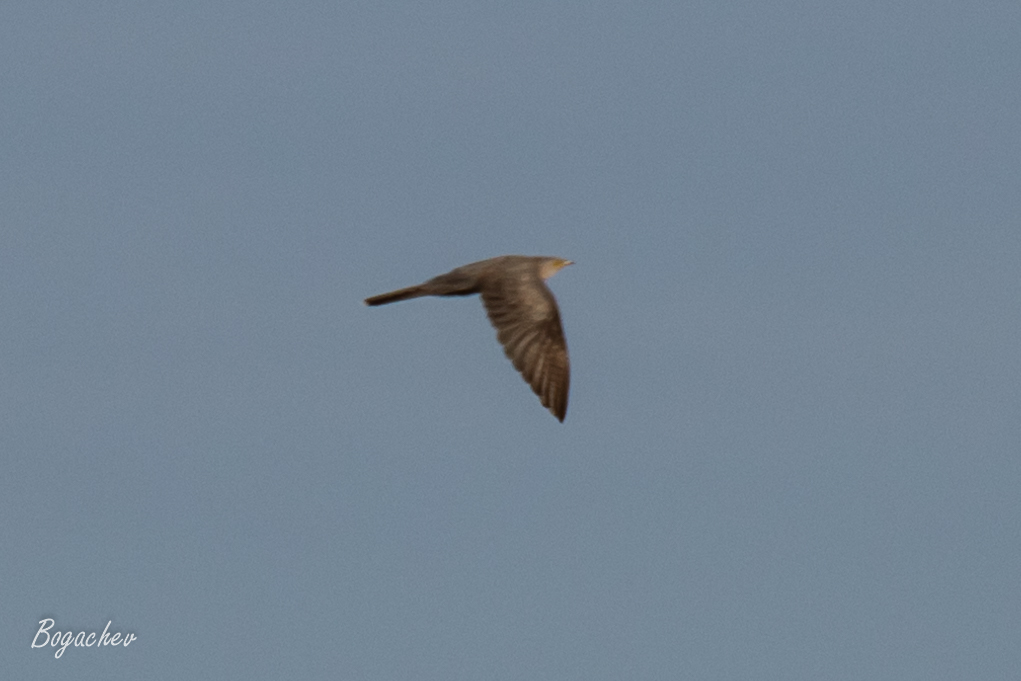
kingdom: Animalia
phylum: Chordata
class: Aves
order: Cuculiformes
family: Cuculidae
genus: Cuculus
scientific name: Cuculus canorus
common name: Common cuckoo
